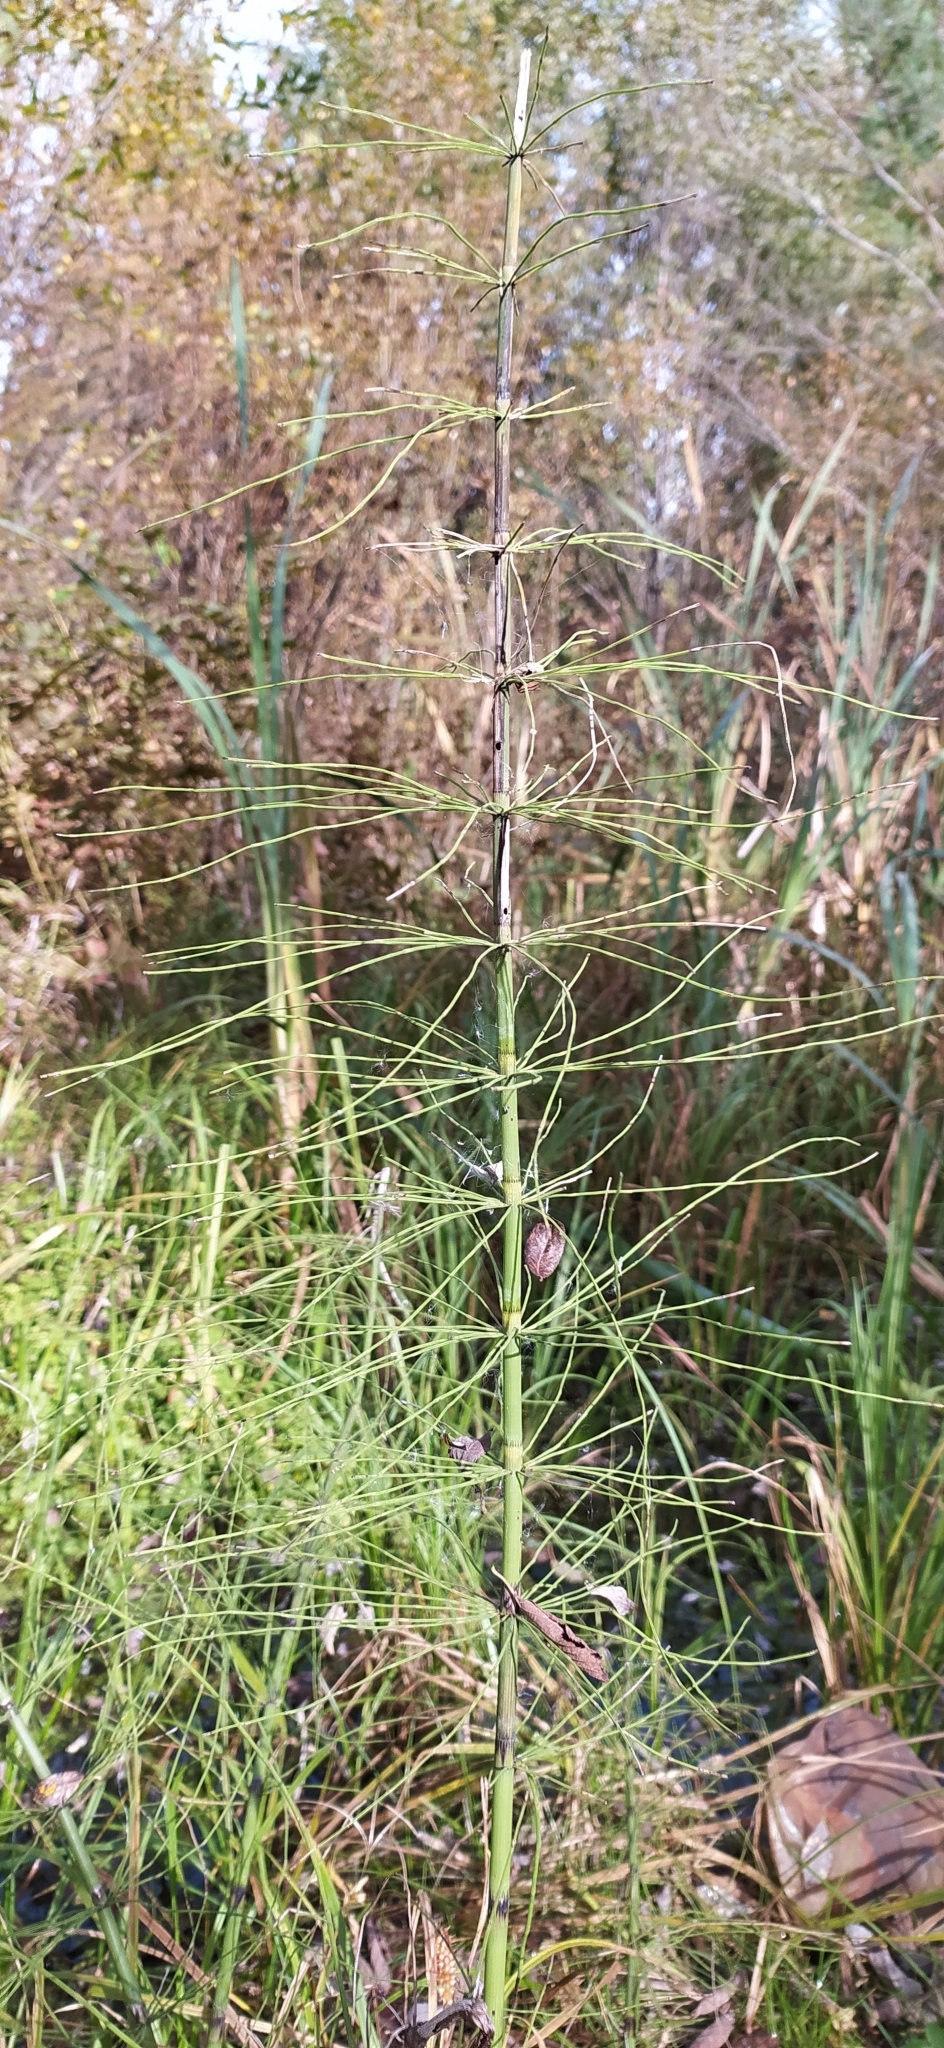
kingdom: Plantae
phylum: Tracheophyta
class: Polypodiopsida
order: Equisetales
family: Equisetaceae
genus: Equisetum
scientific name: Equisetum fluviatile
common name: Water horsetail
